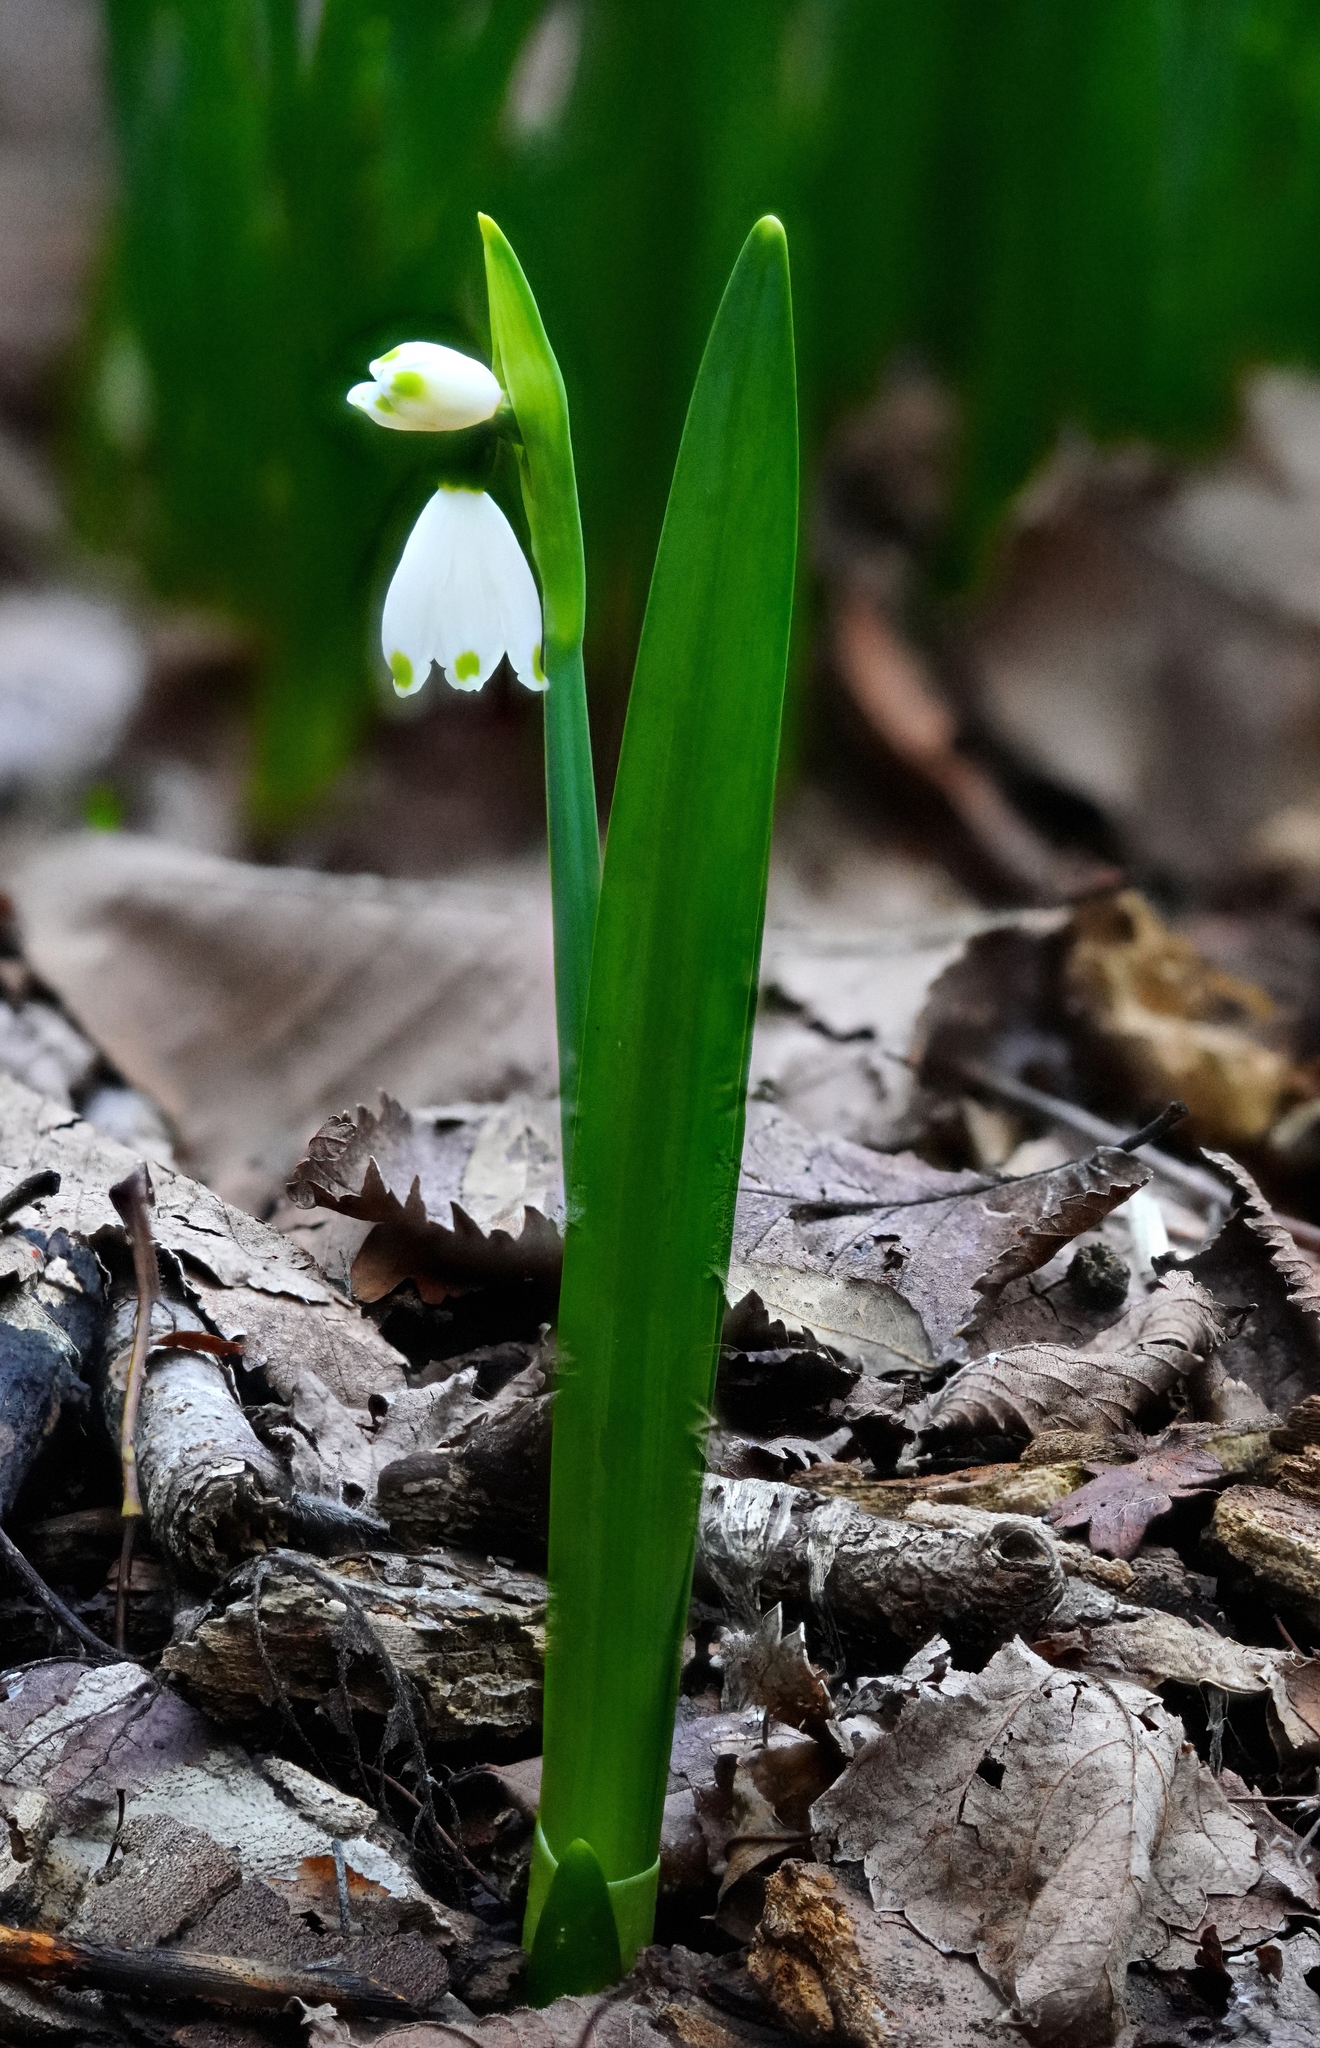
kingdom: Plantae
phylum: Tracheophyta
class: Liliopsida
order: Asparagales
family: Amaryllidaceae
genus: Leucojum
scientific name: Leucojum aestivum
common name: Summer snowflake
